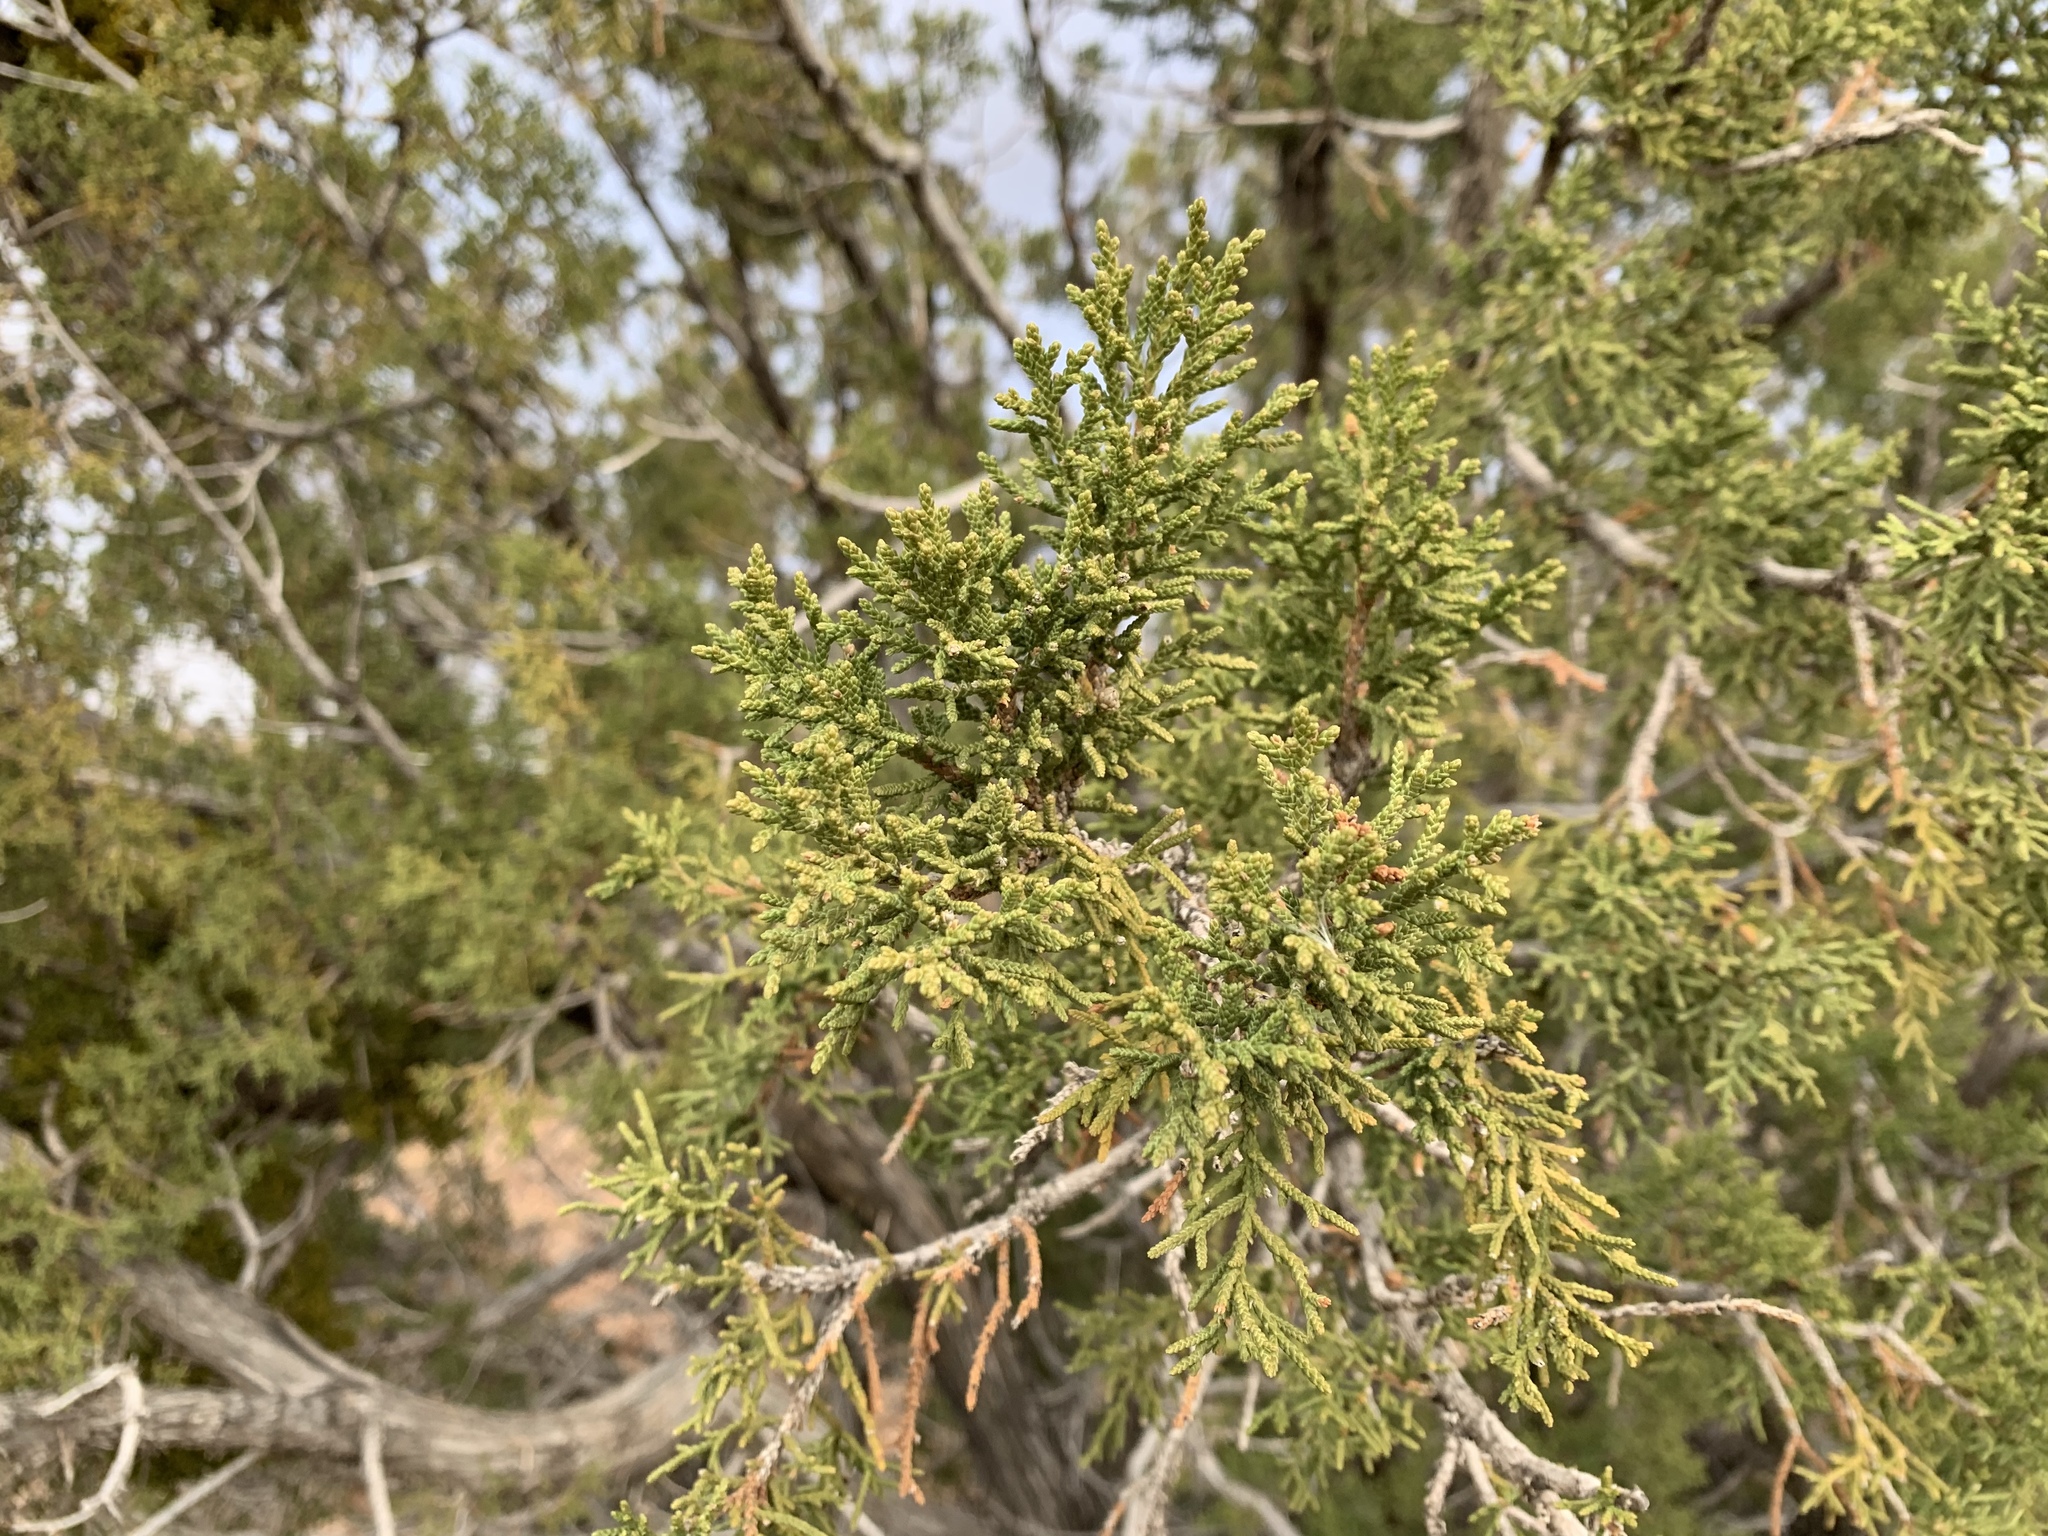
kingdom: Plantae
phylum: Tracheophyta
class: Pinopsida
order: Pinales
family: Cupressaceae
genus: Juniperus
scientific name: Juniperus monosperma
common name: One-seed juniper
